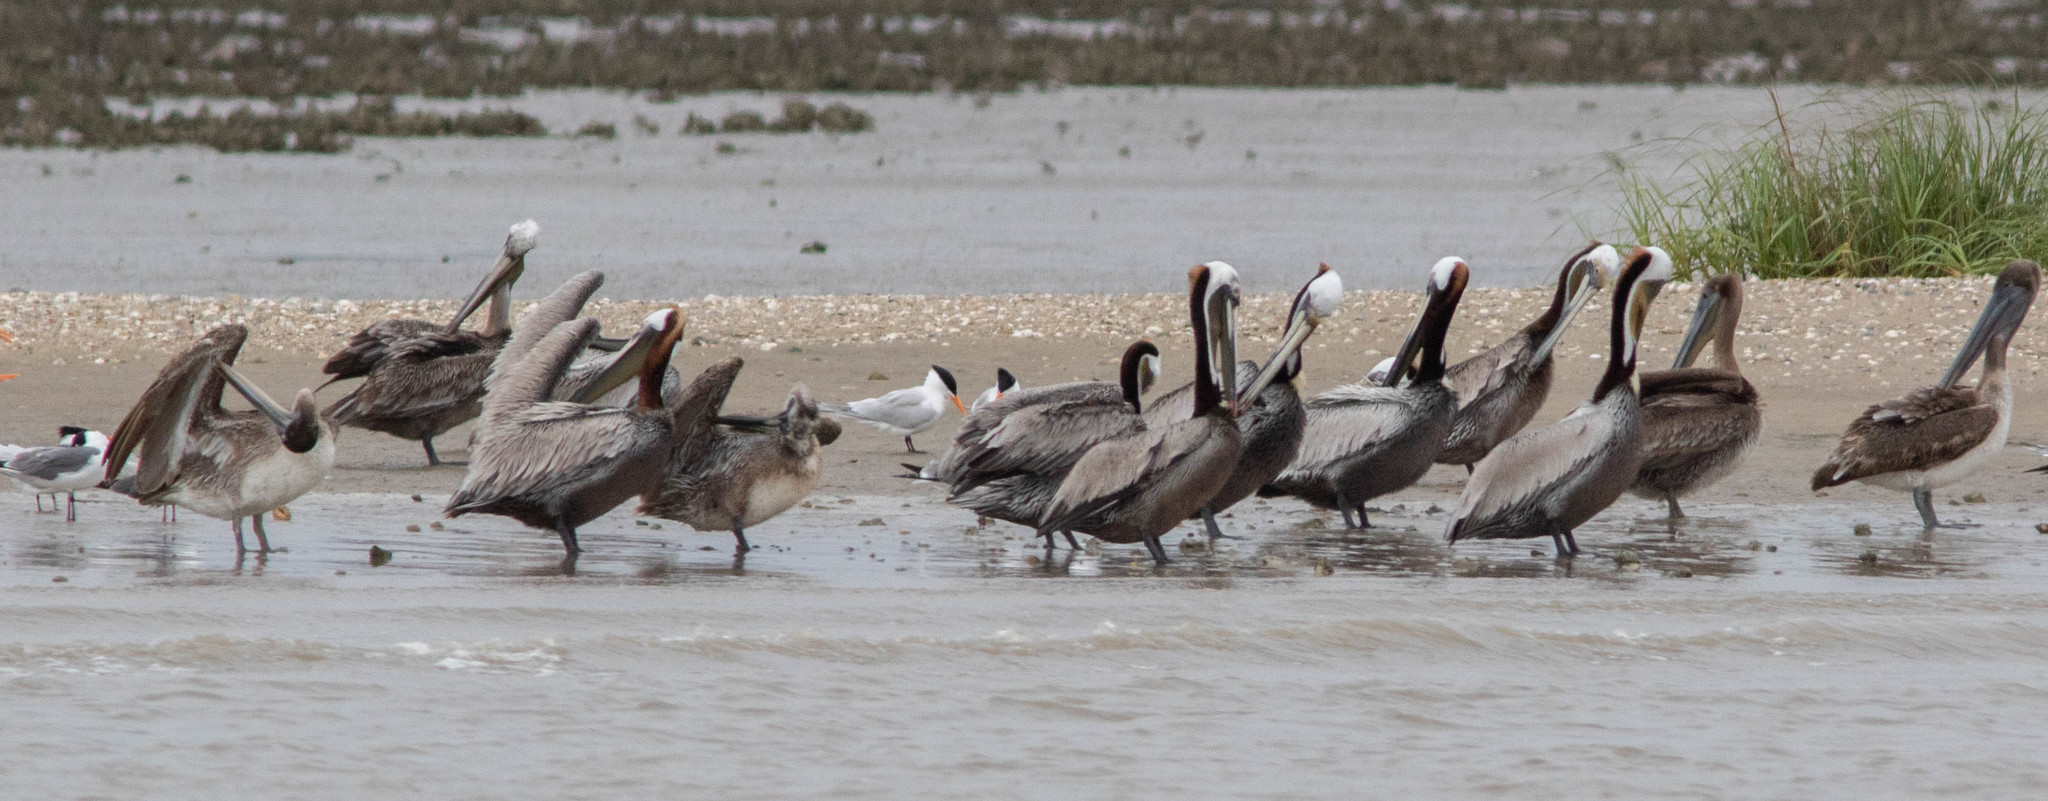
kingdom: Animalia
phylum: Chordata
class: Aves
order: Pelecaniformes
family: Pelecanidae
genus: Pelecanus
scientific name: Pelecanus occidentalis
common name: Brown pelican
